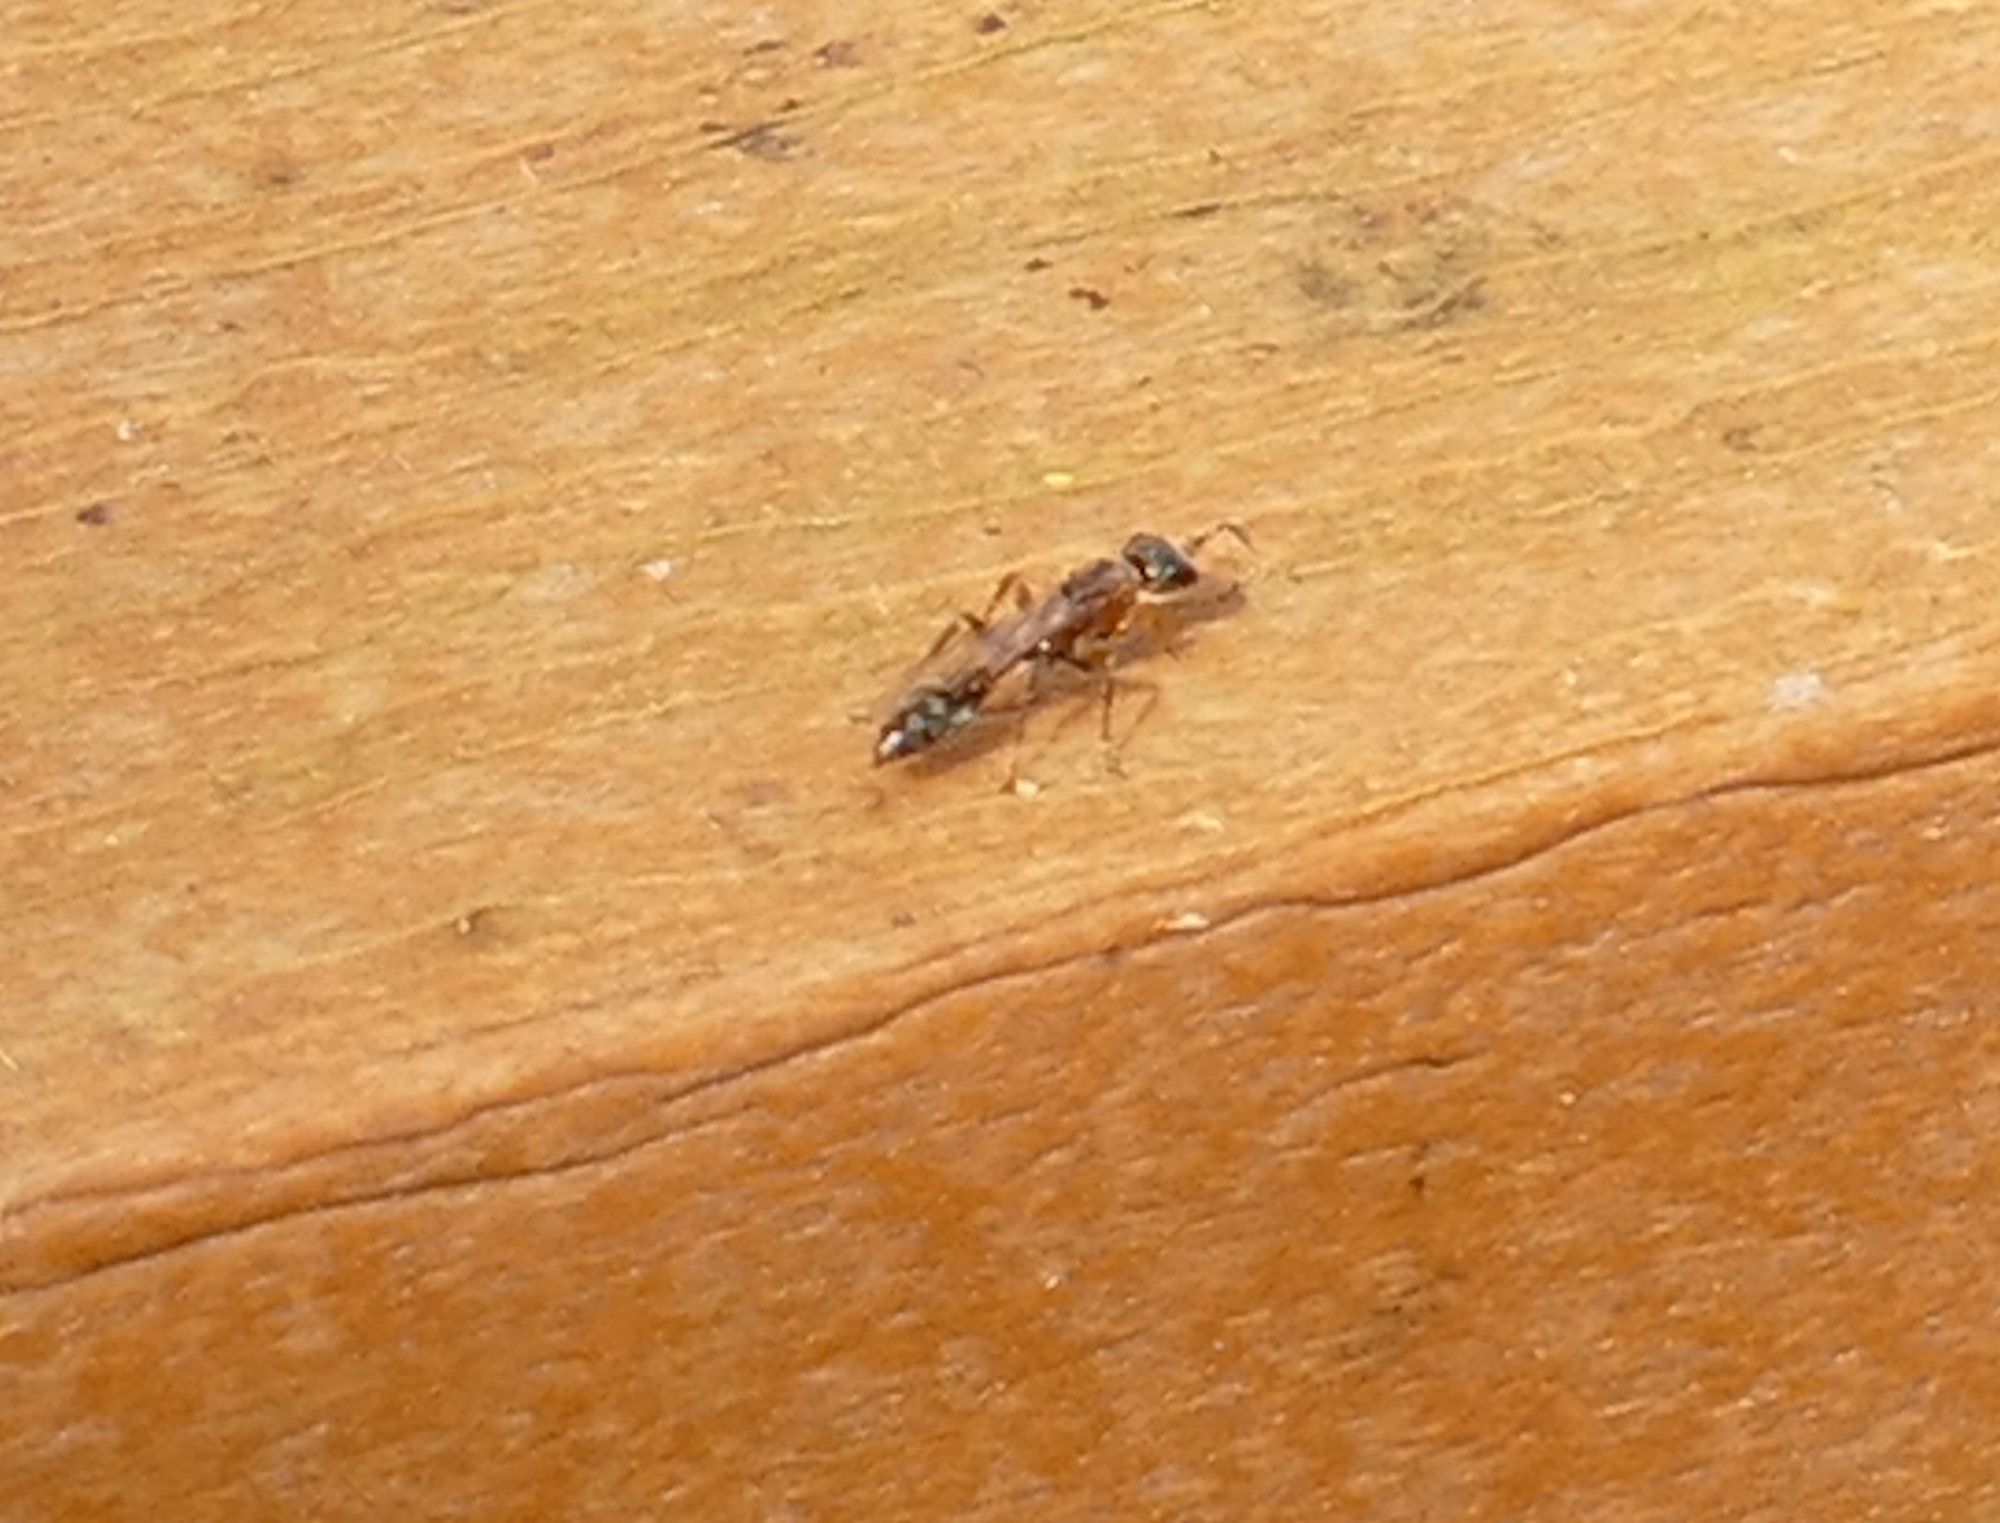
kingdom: Animalia
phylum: Arthropoda
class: Insecta
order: Hymenoptera
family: Formicidae
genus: Pseudomyrmex
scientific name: Pseudomyrmex gracilis
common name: Graceful twig ant
